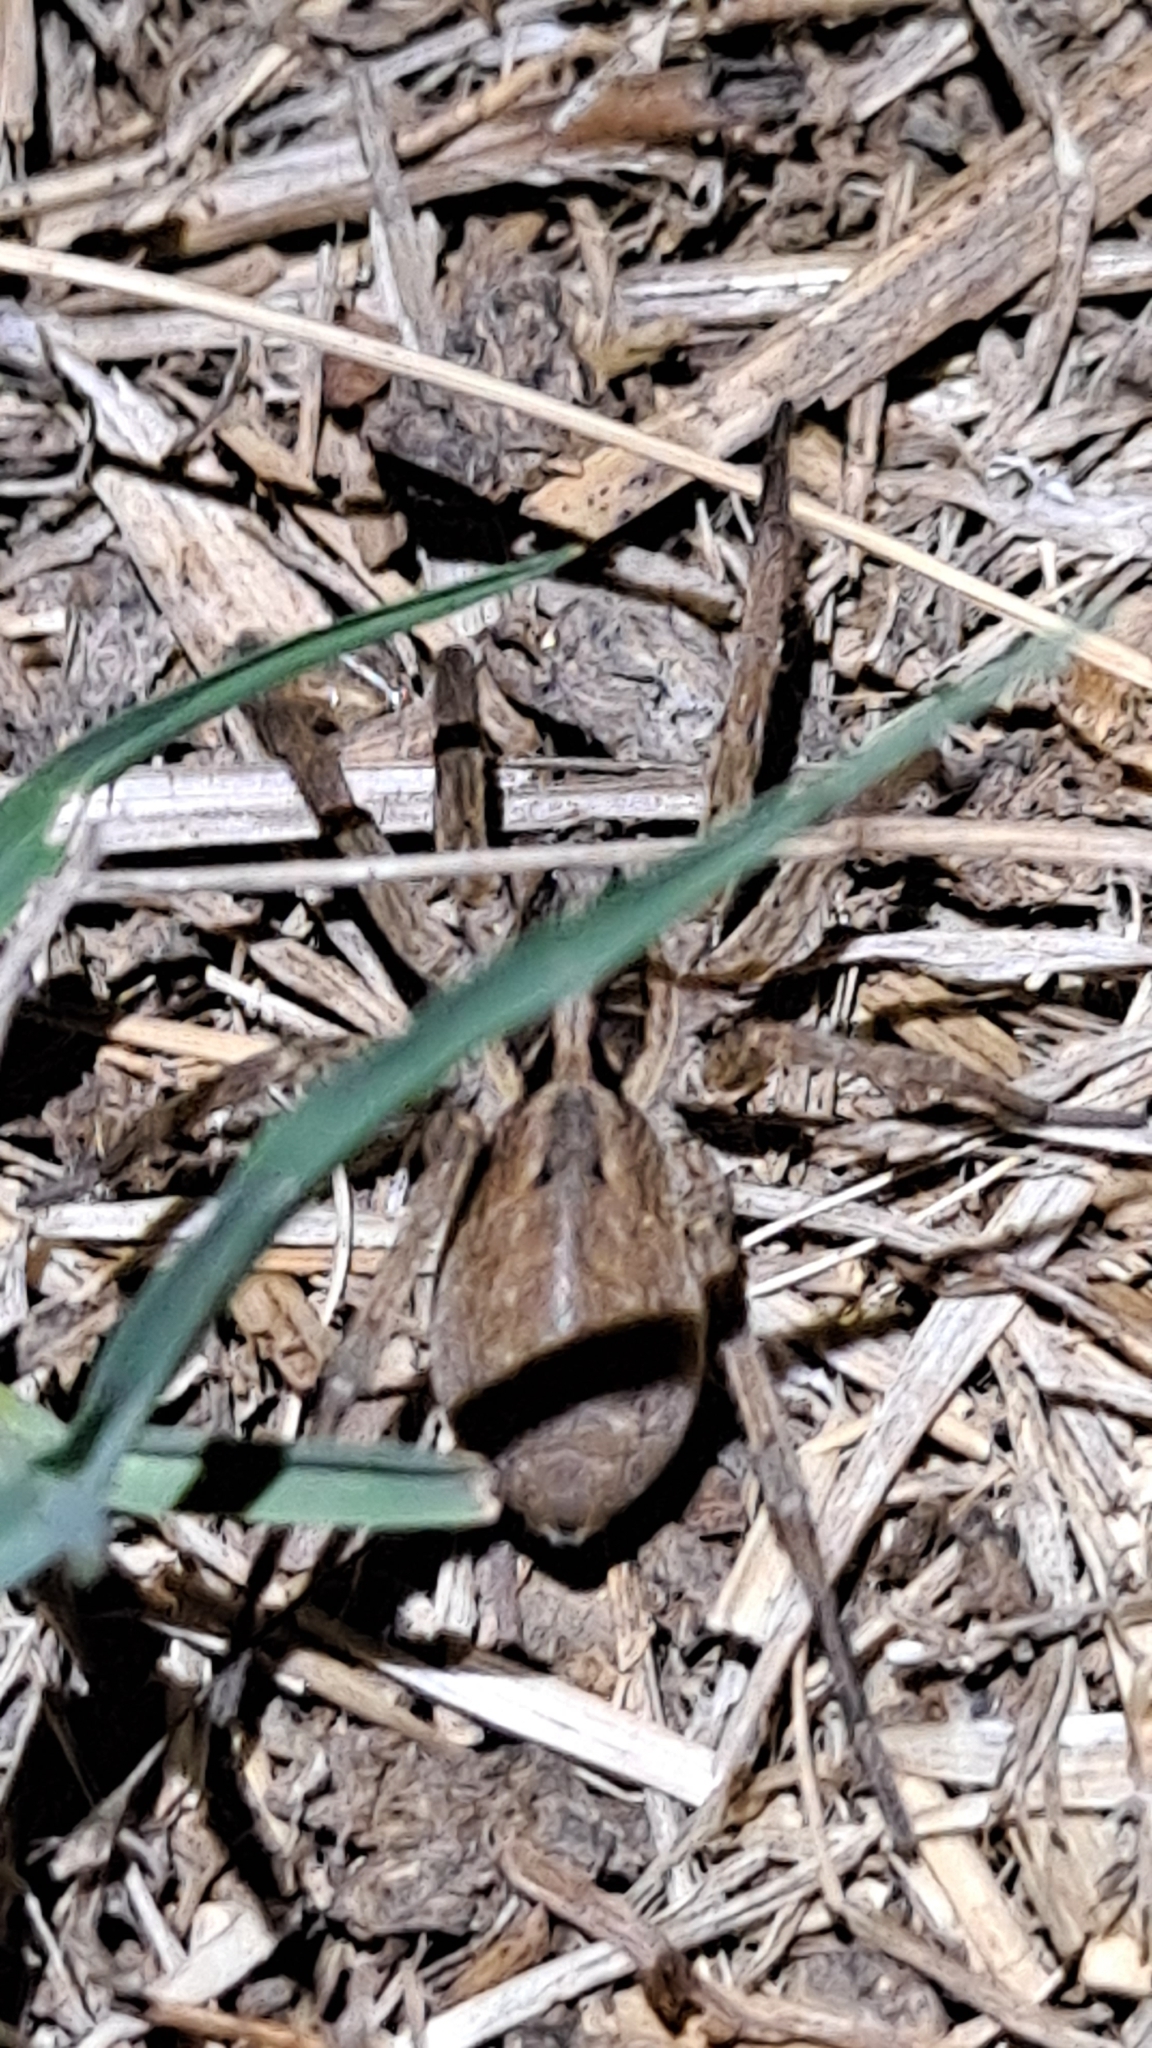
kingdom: Animalia
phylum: Arthropoda
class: Arachnida
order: Araneae
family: Lycosidae
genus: Hogna
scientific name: Hogna radiata
